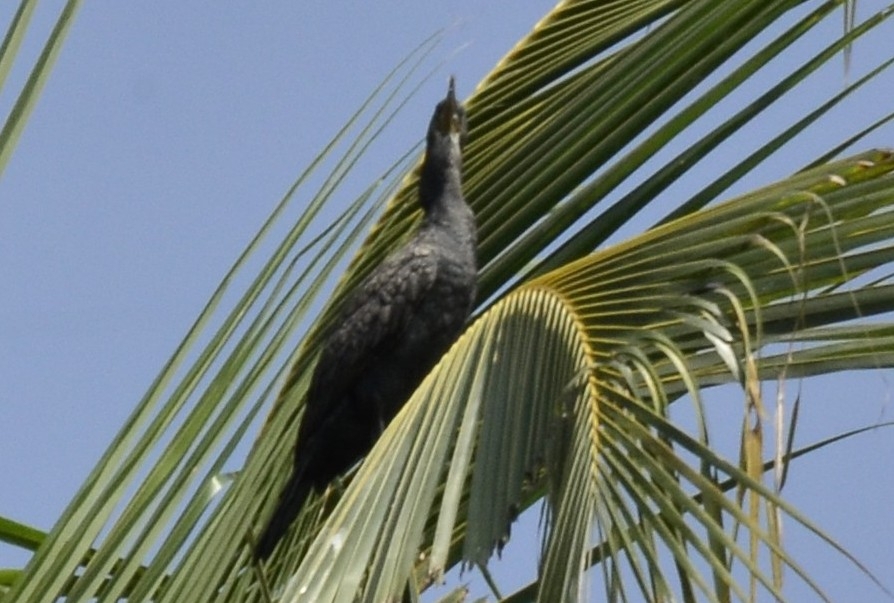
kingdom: Animalia
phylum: Chordata
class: Aves
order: Suliformes
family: Phalacrocoracidae
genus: Phalacrocorax
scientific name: Phalacrocorax fuscicollis
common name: Indian cormorant
